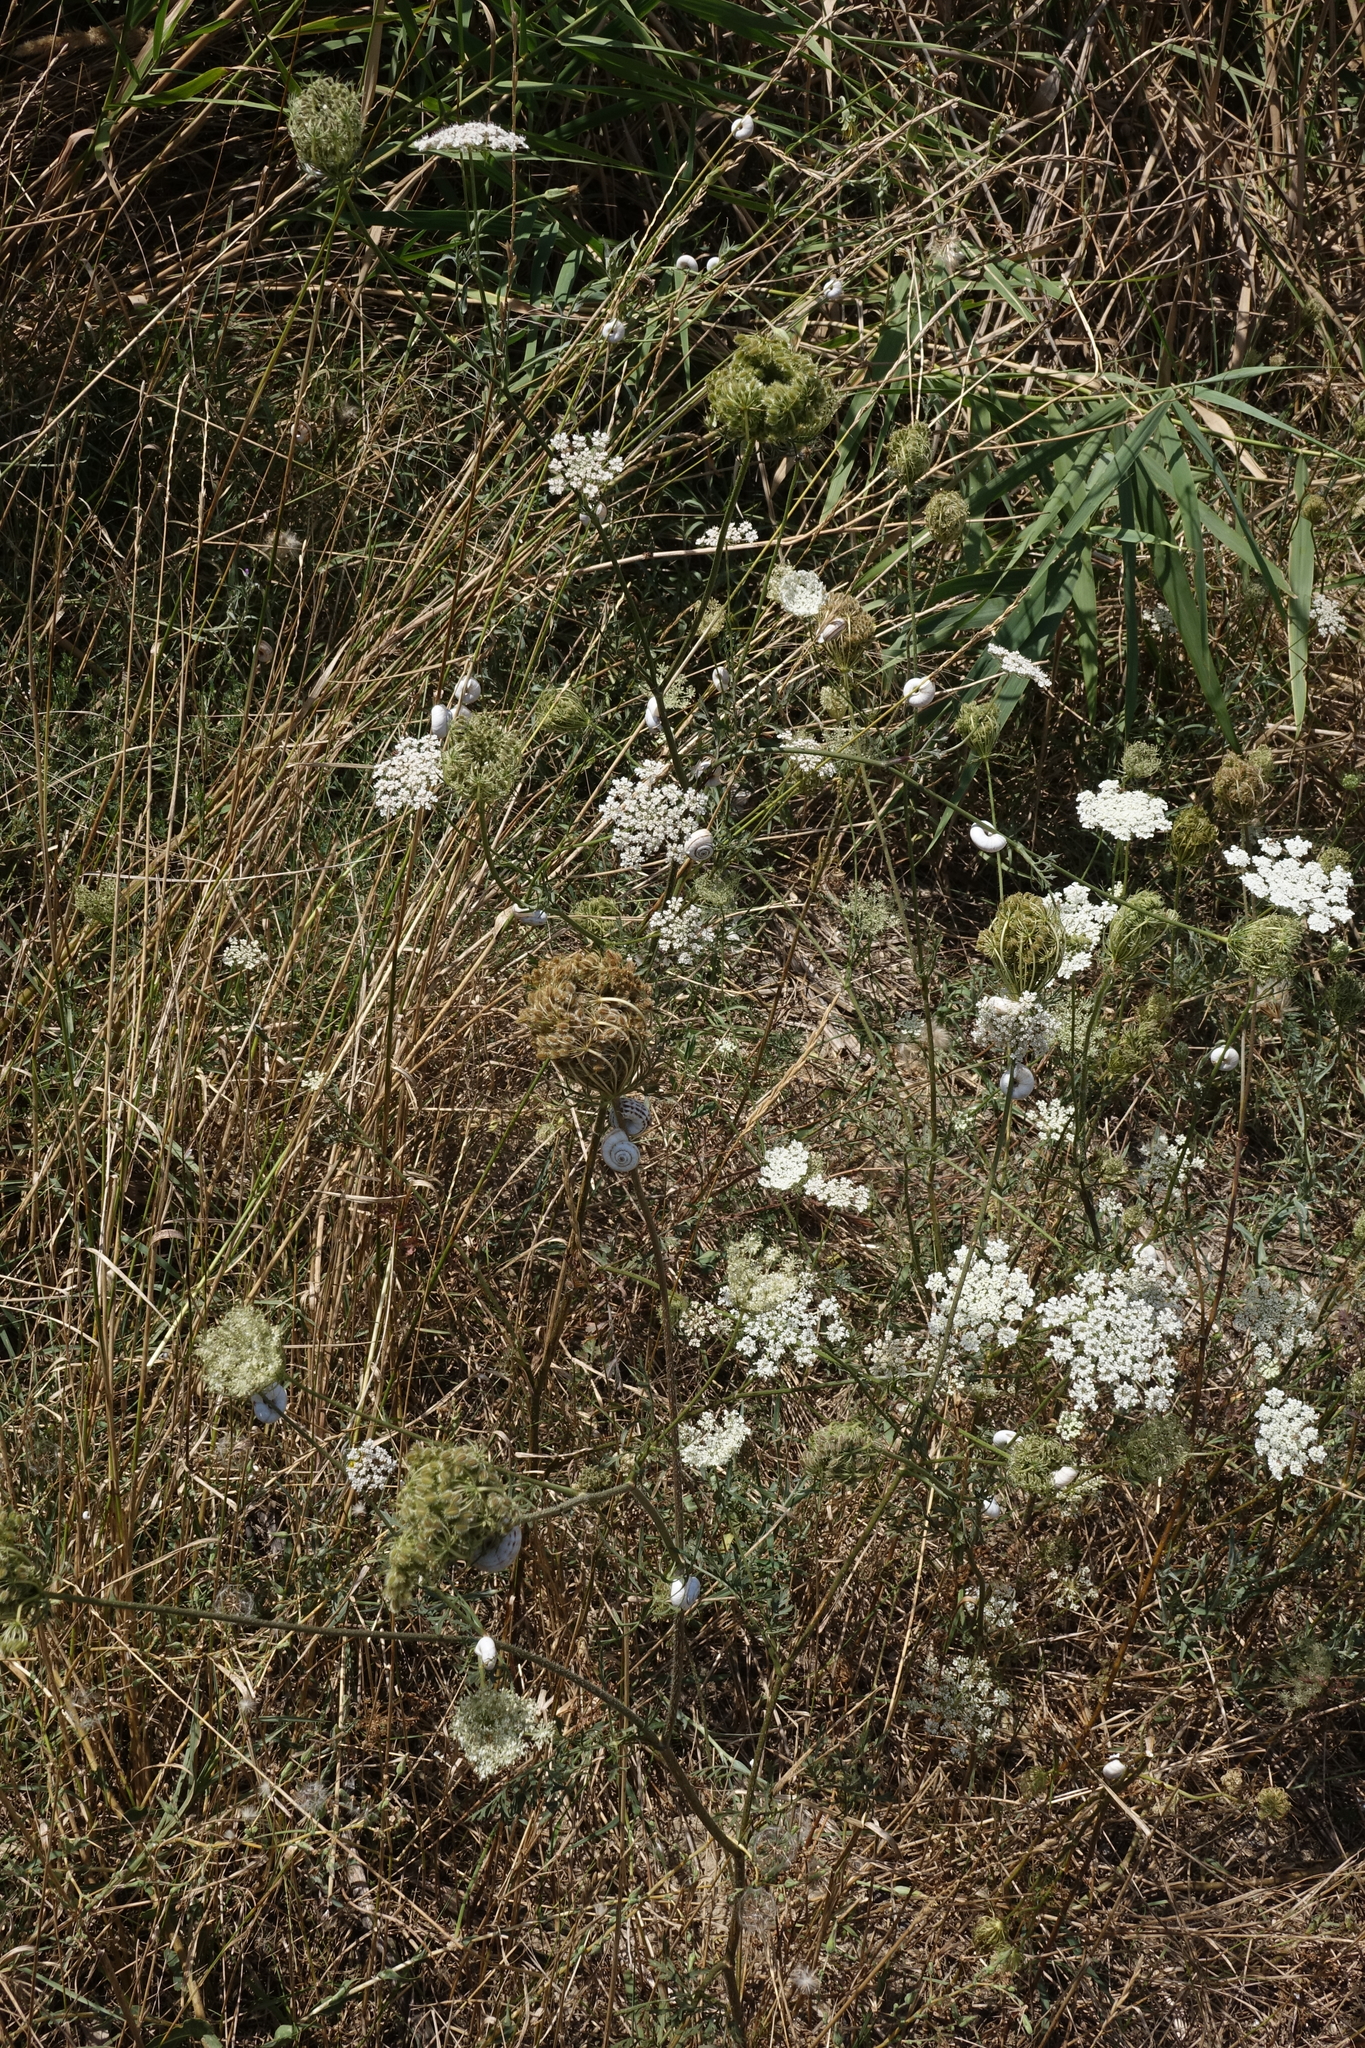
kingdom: Plantae
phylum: Tracheophyta
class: Magnoliopsida
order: Apiales
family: Apiaceae
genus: Daucus
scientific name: Daucus carota
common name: Wild carrot
